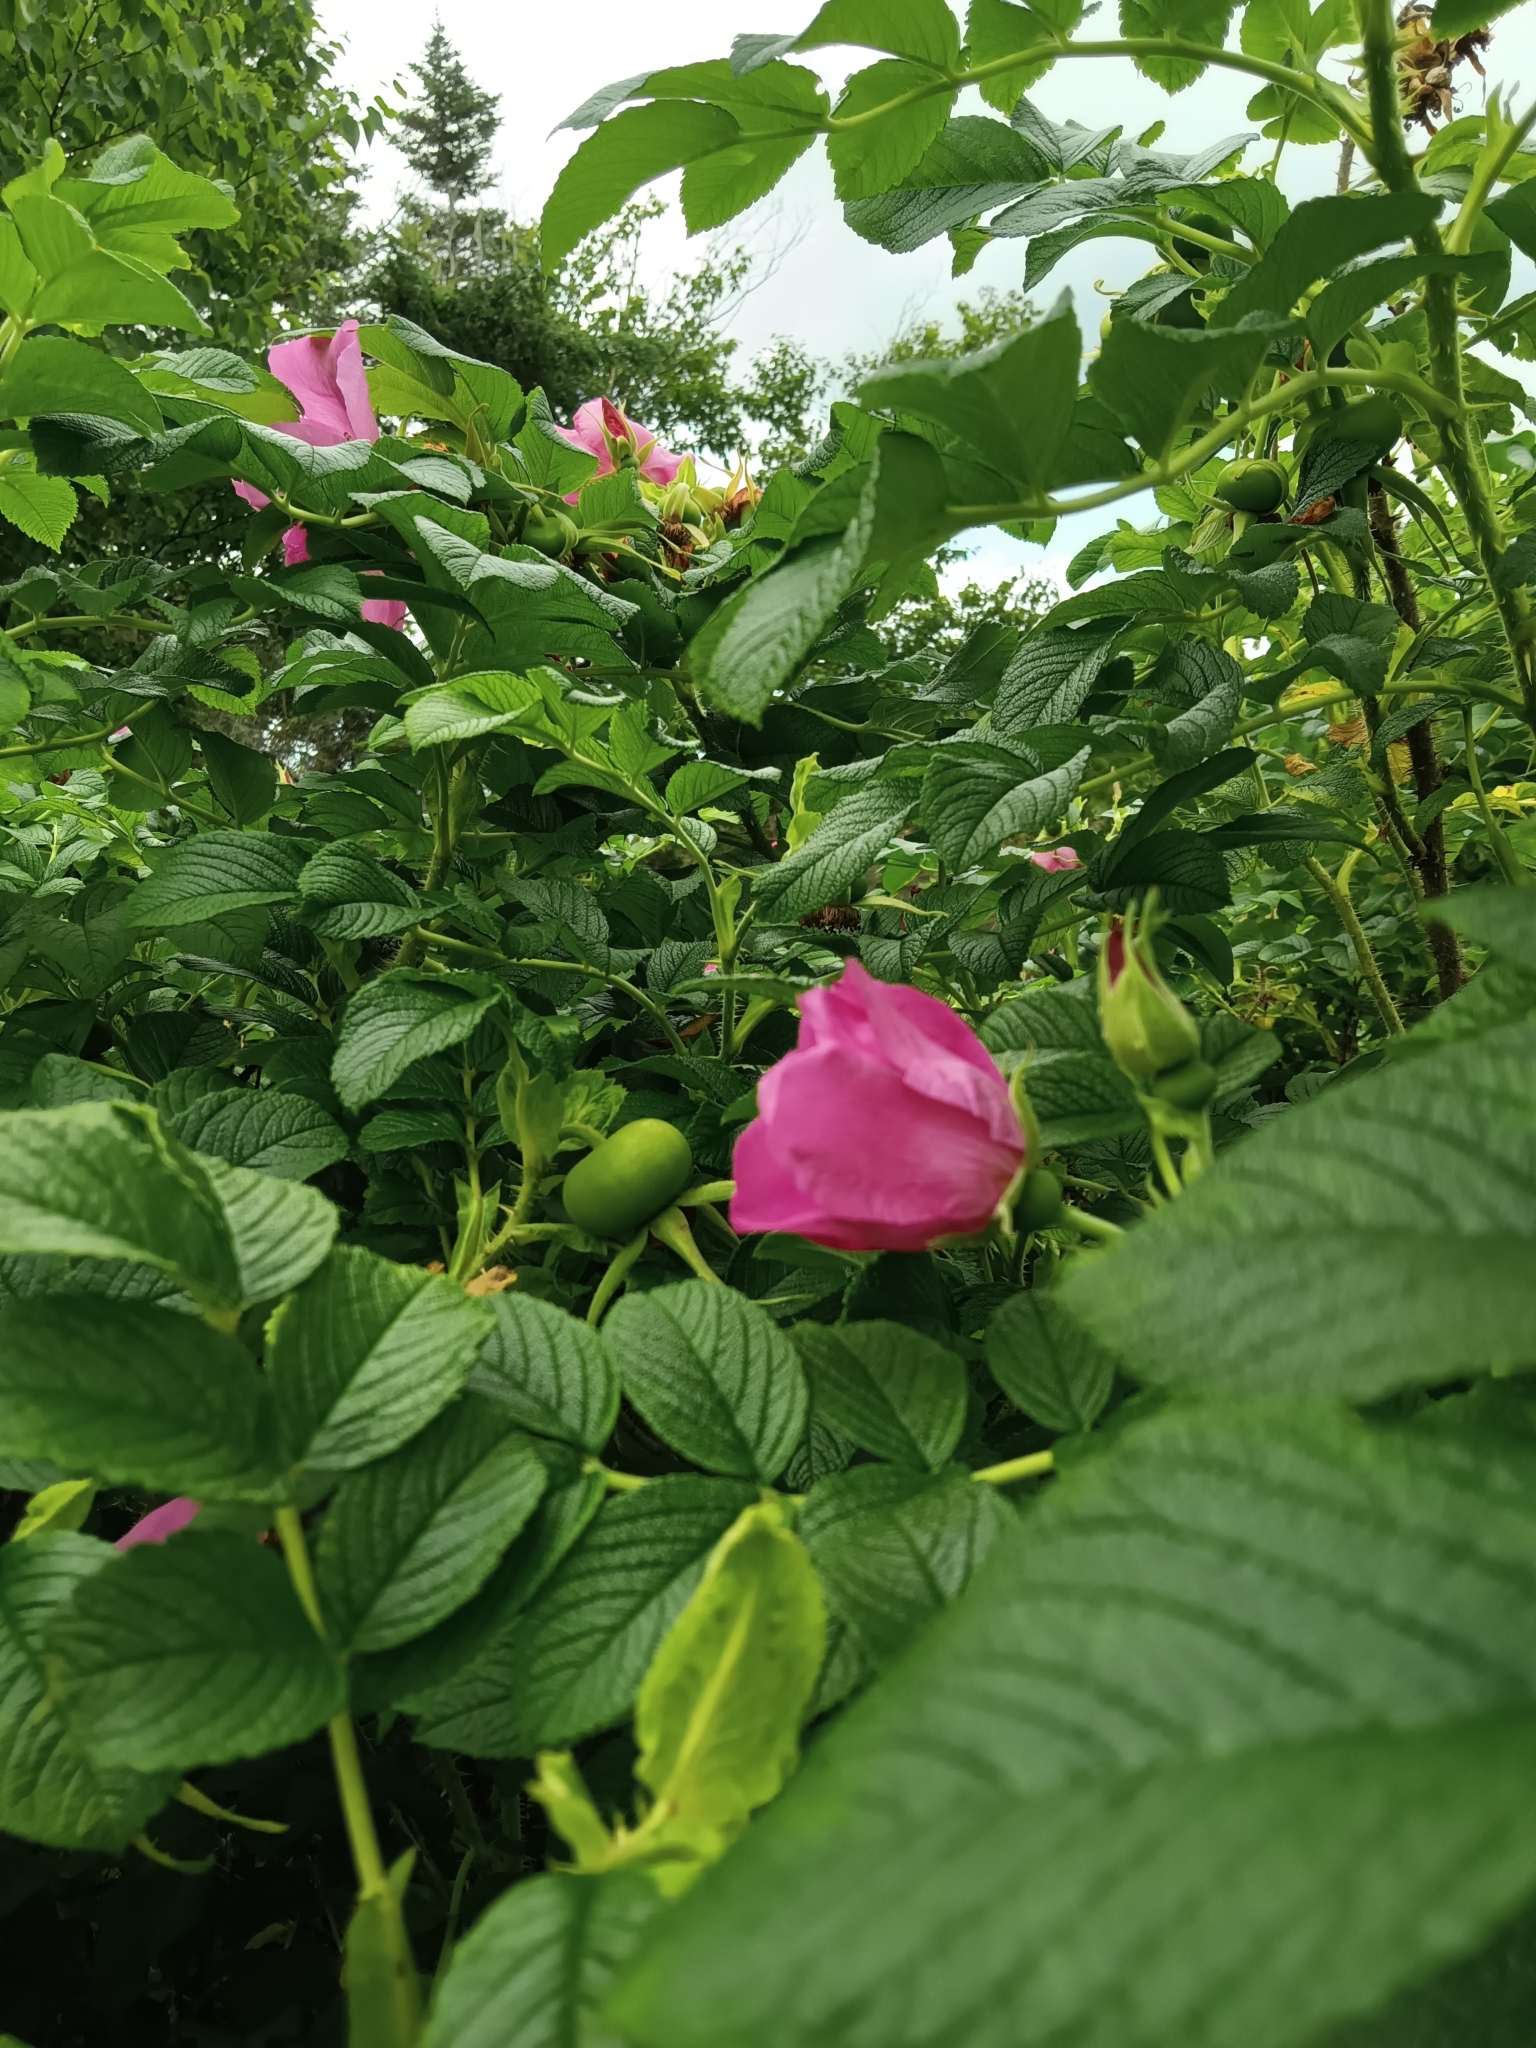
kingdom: Plantae
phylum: Tracheophyta
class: Magnoliopsida
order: Rosales
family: Rosaceae
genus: Rosa
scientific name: Rosa rugosa
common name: Japanese rose
